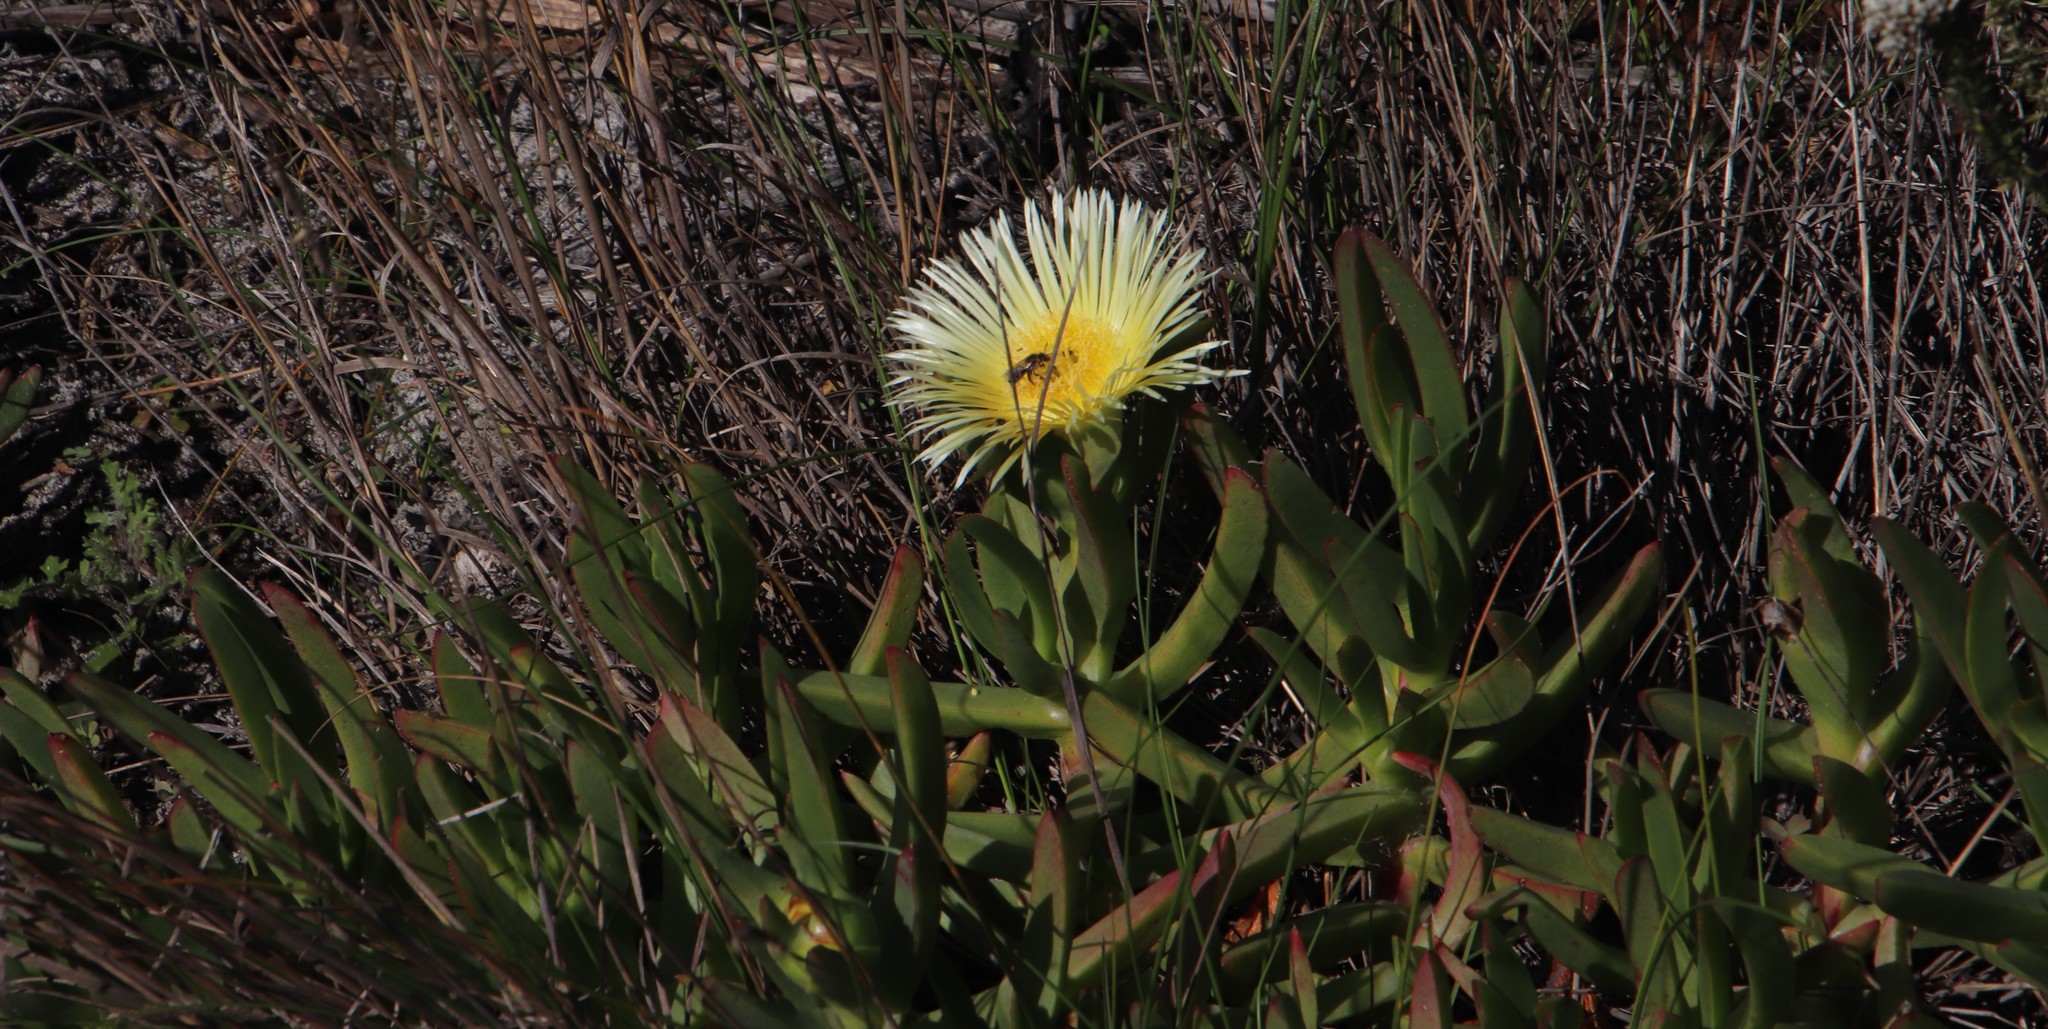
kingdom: Plantae
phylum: Tracheophyta
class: Magnoliopsida
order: Caryophyllales
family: Aizoaceae
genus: Carpobrotus
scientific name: Carpobrotus edulis
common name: Hottentot-fig
